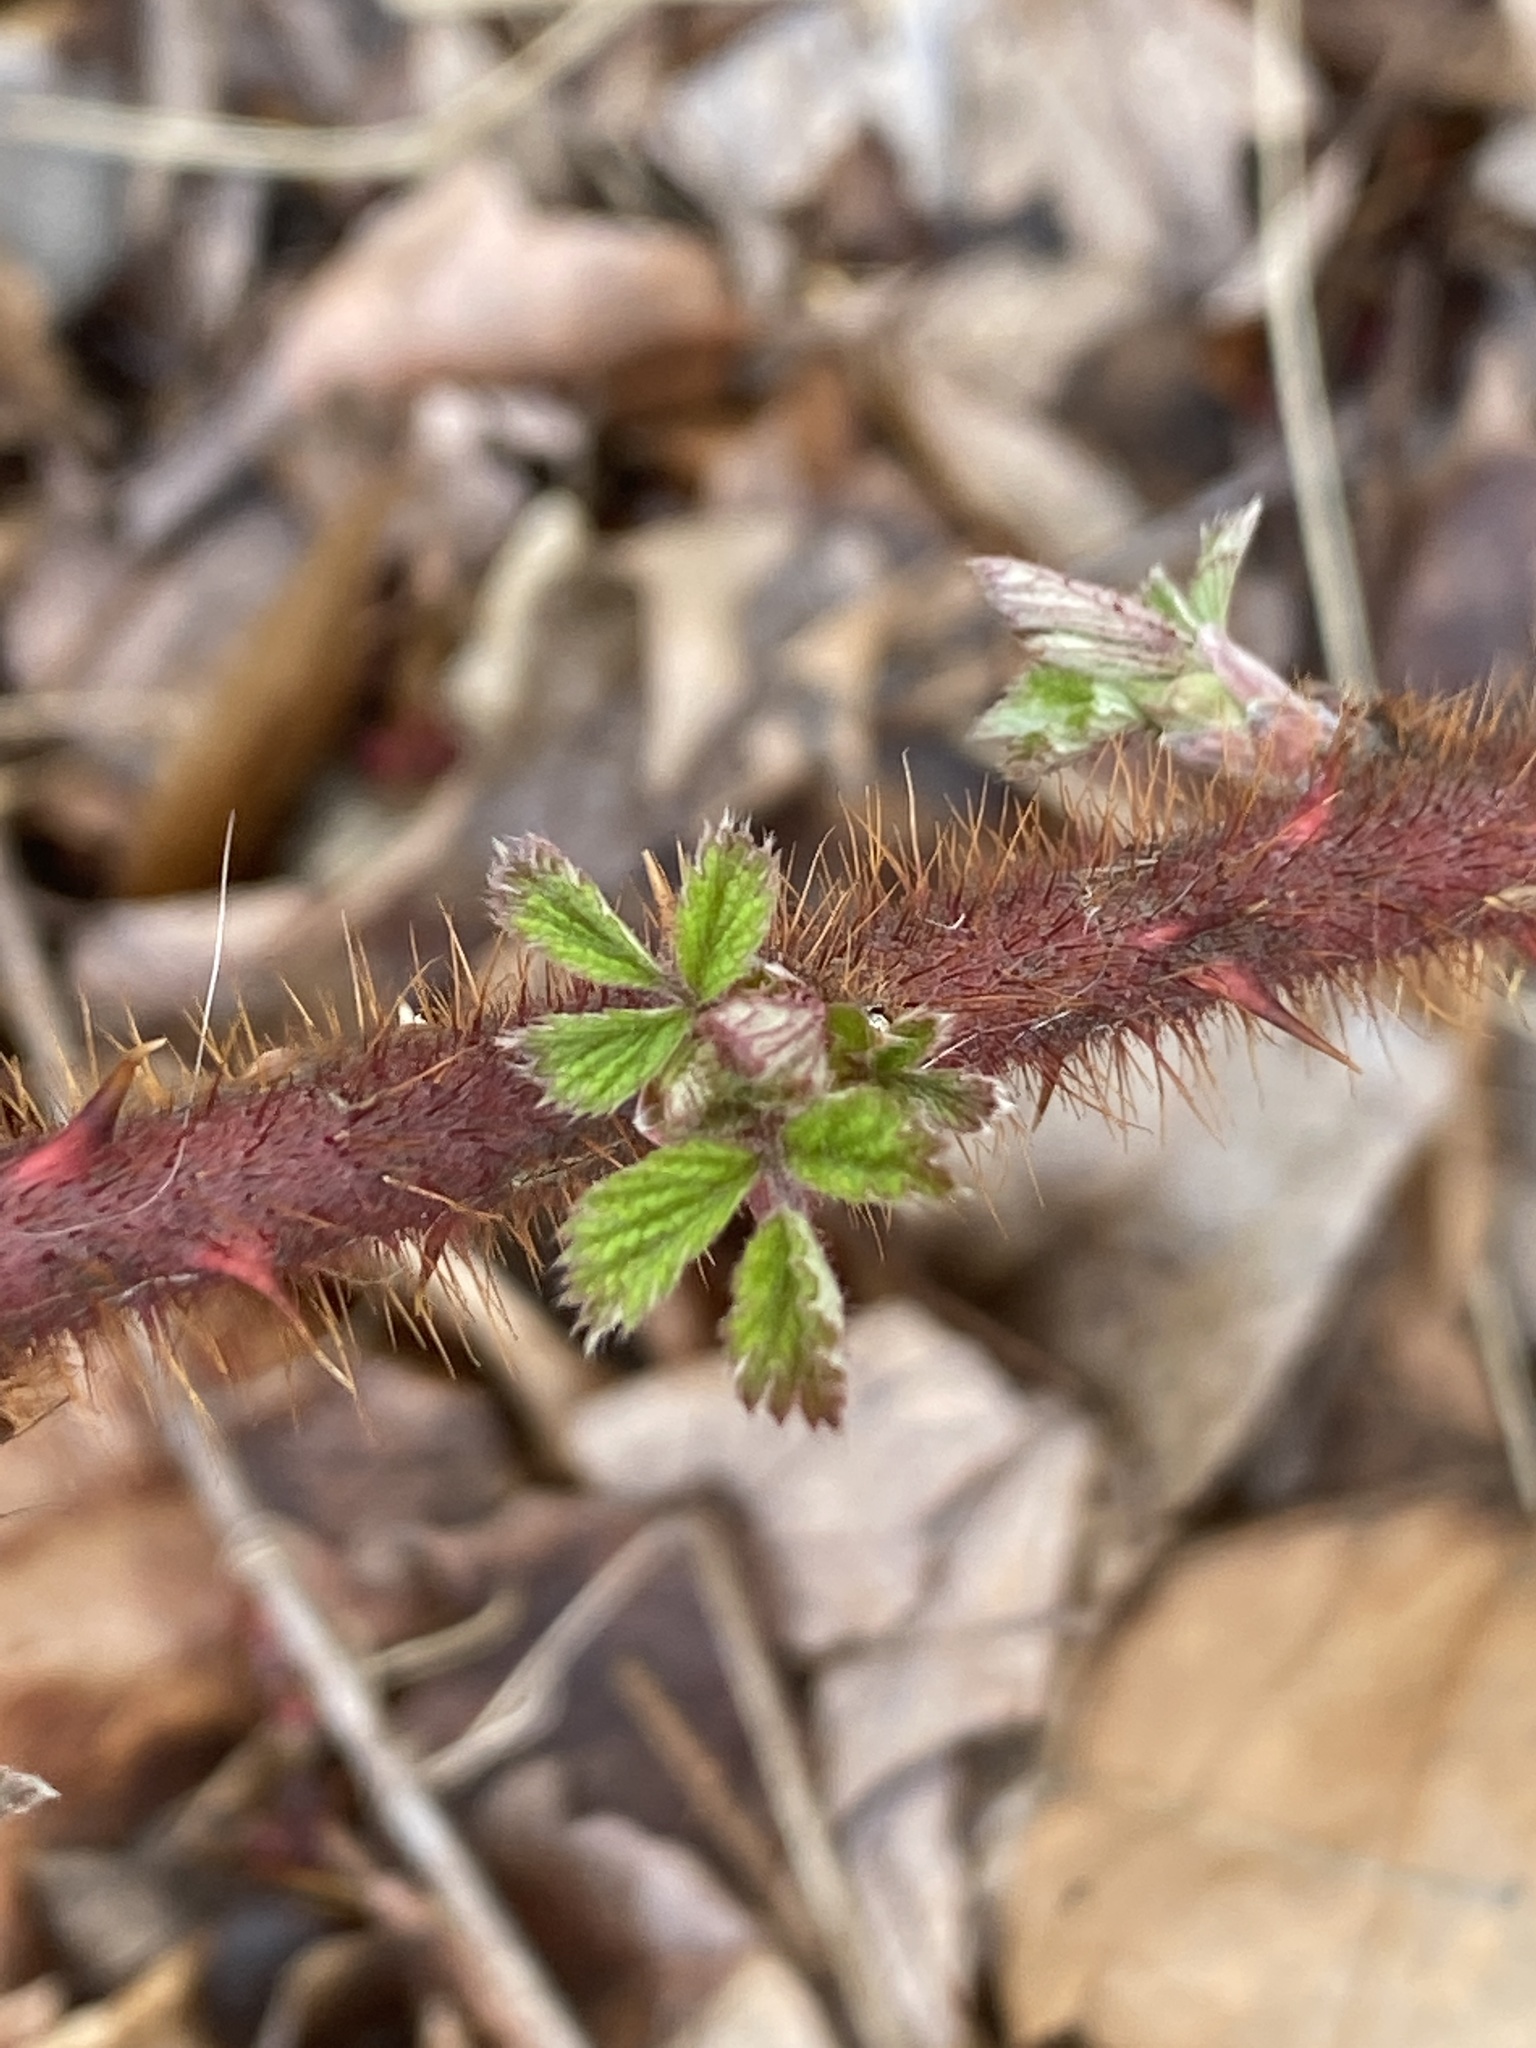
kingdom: Plantae
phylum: Tracheophyta
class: Magnoliopsida
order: Rosales
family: Rosaceae
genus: Rubus
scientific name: Rubus phoenicolasius
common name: Japanese wineberry
